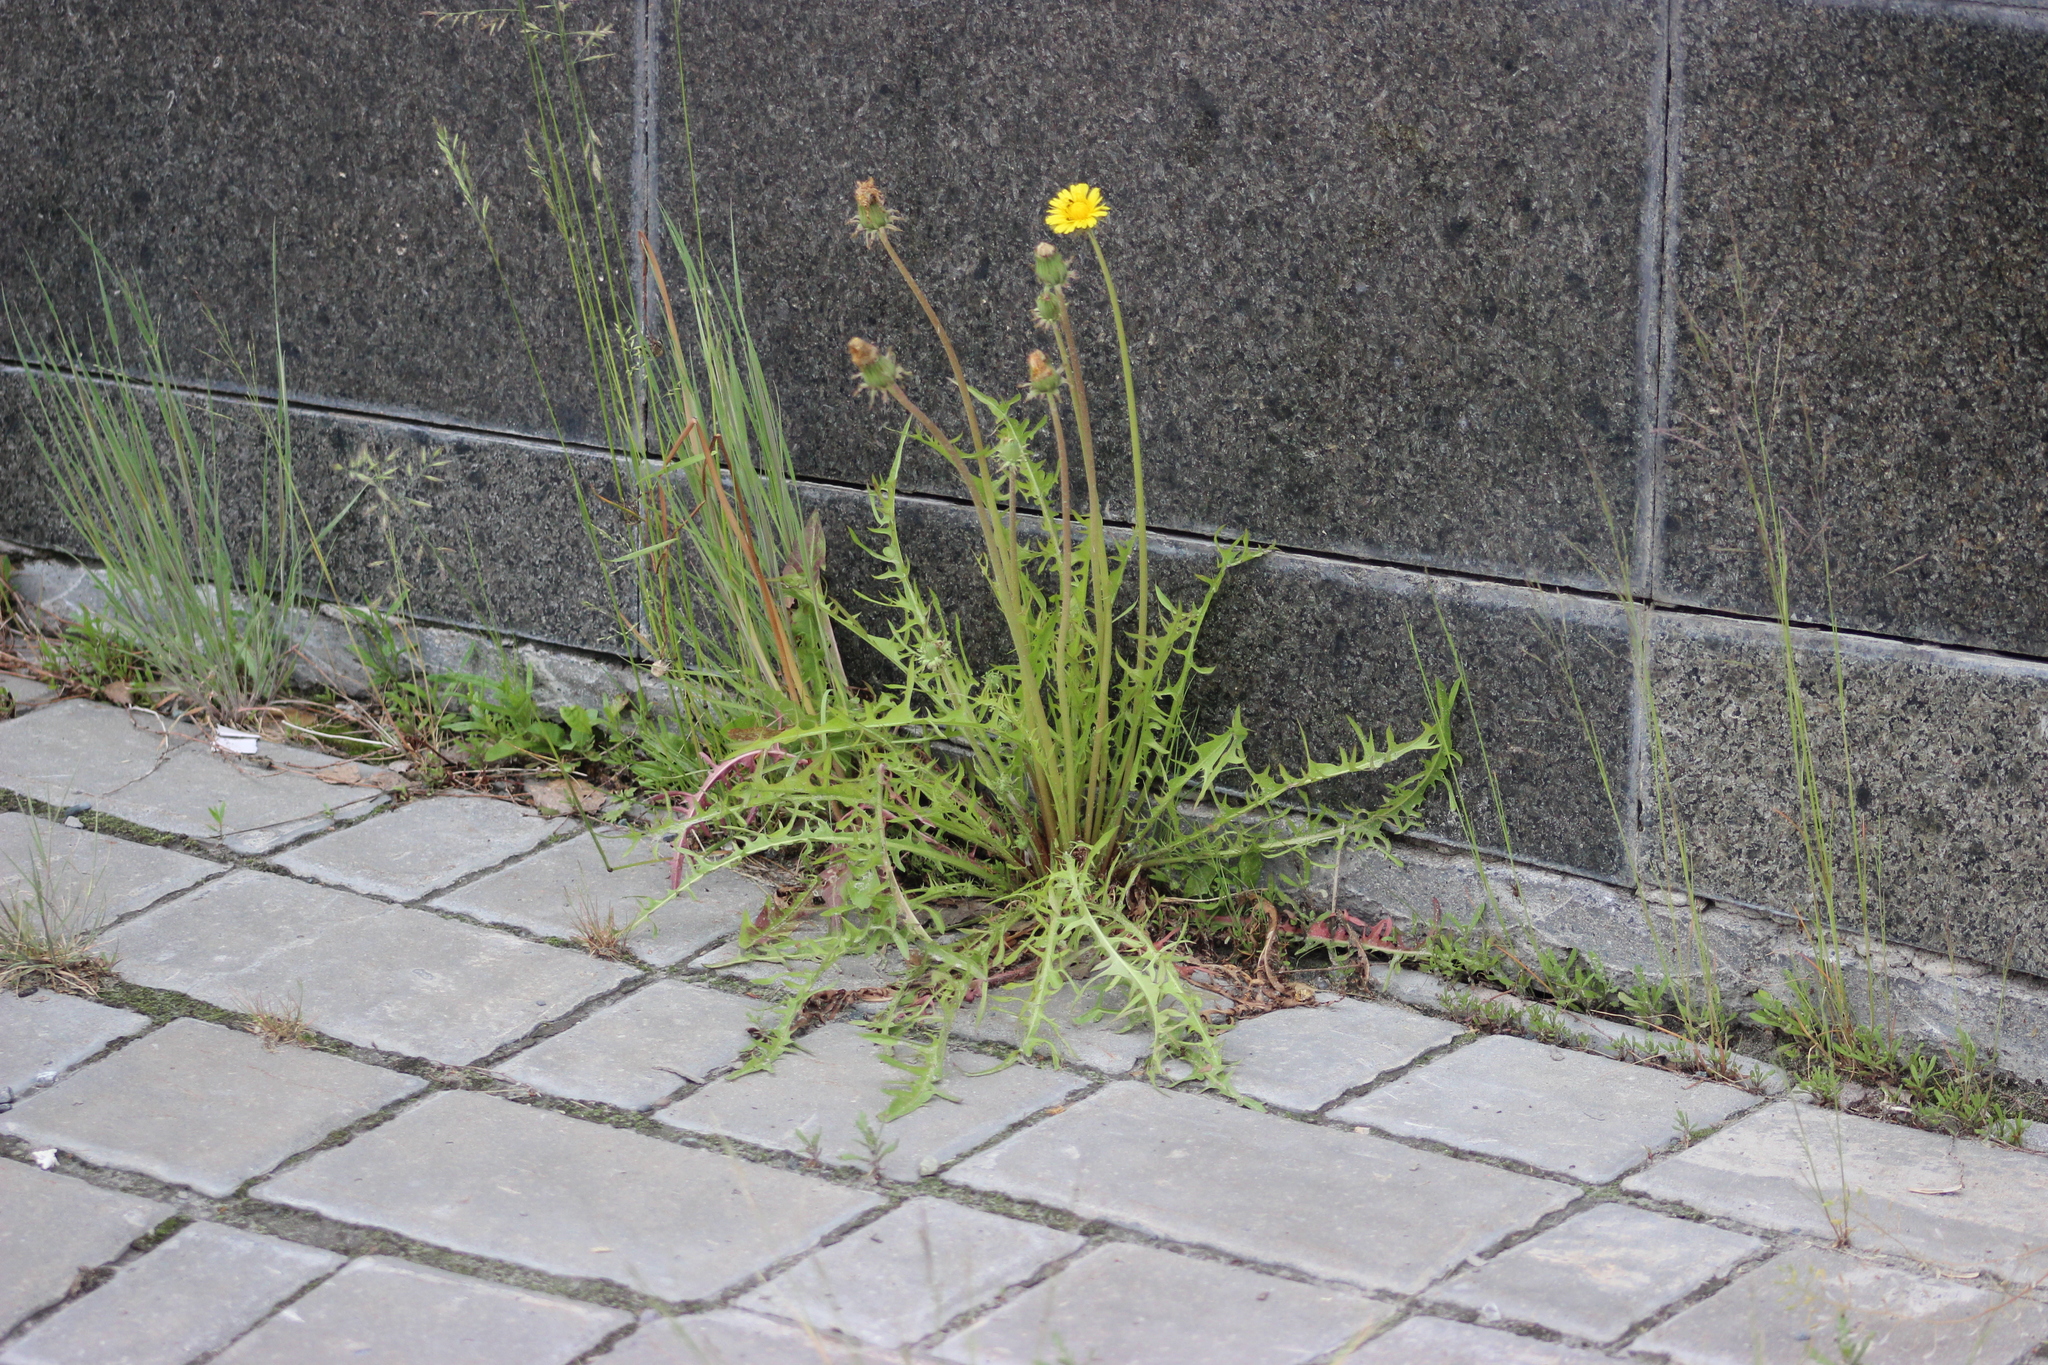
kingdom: Plantae
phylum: Tracheophyta
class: Magnoliopsida
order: Asterales
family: Asteraceae
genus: Taraxacum
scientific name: Taraxacum scariosum
